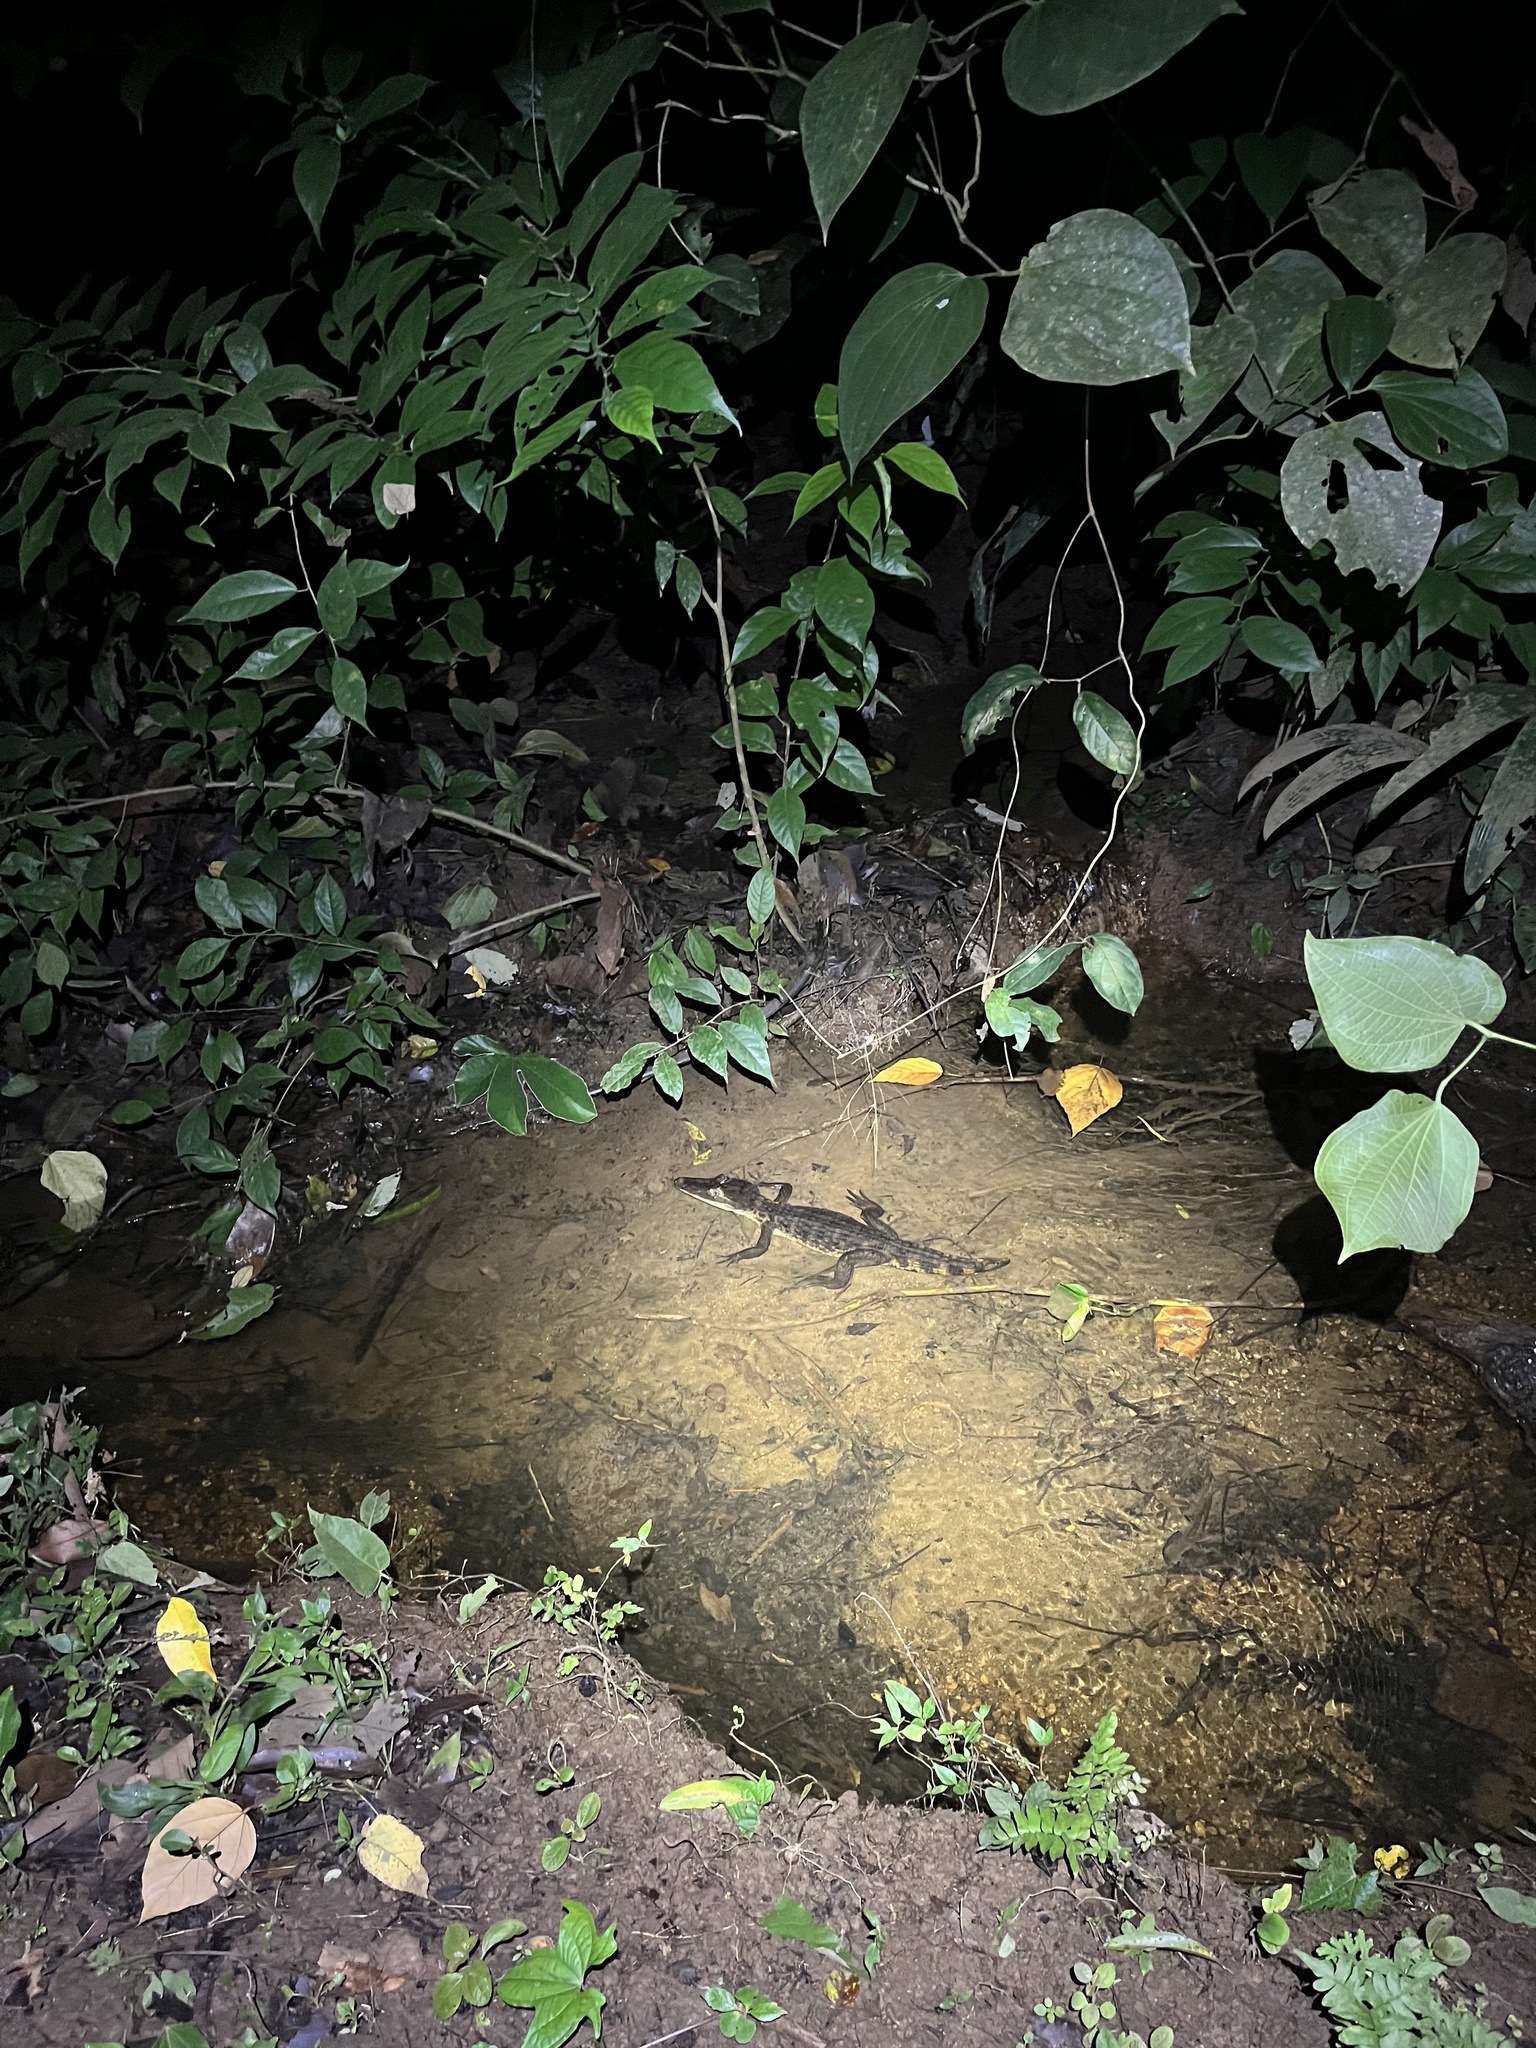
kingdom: Animalia
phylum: Chordata
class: Crocodylia
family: Alligatoridae
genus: Caiman
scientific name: Caiman crocodilus
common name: Common caiman
